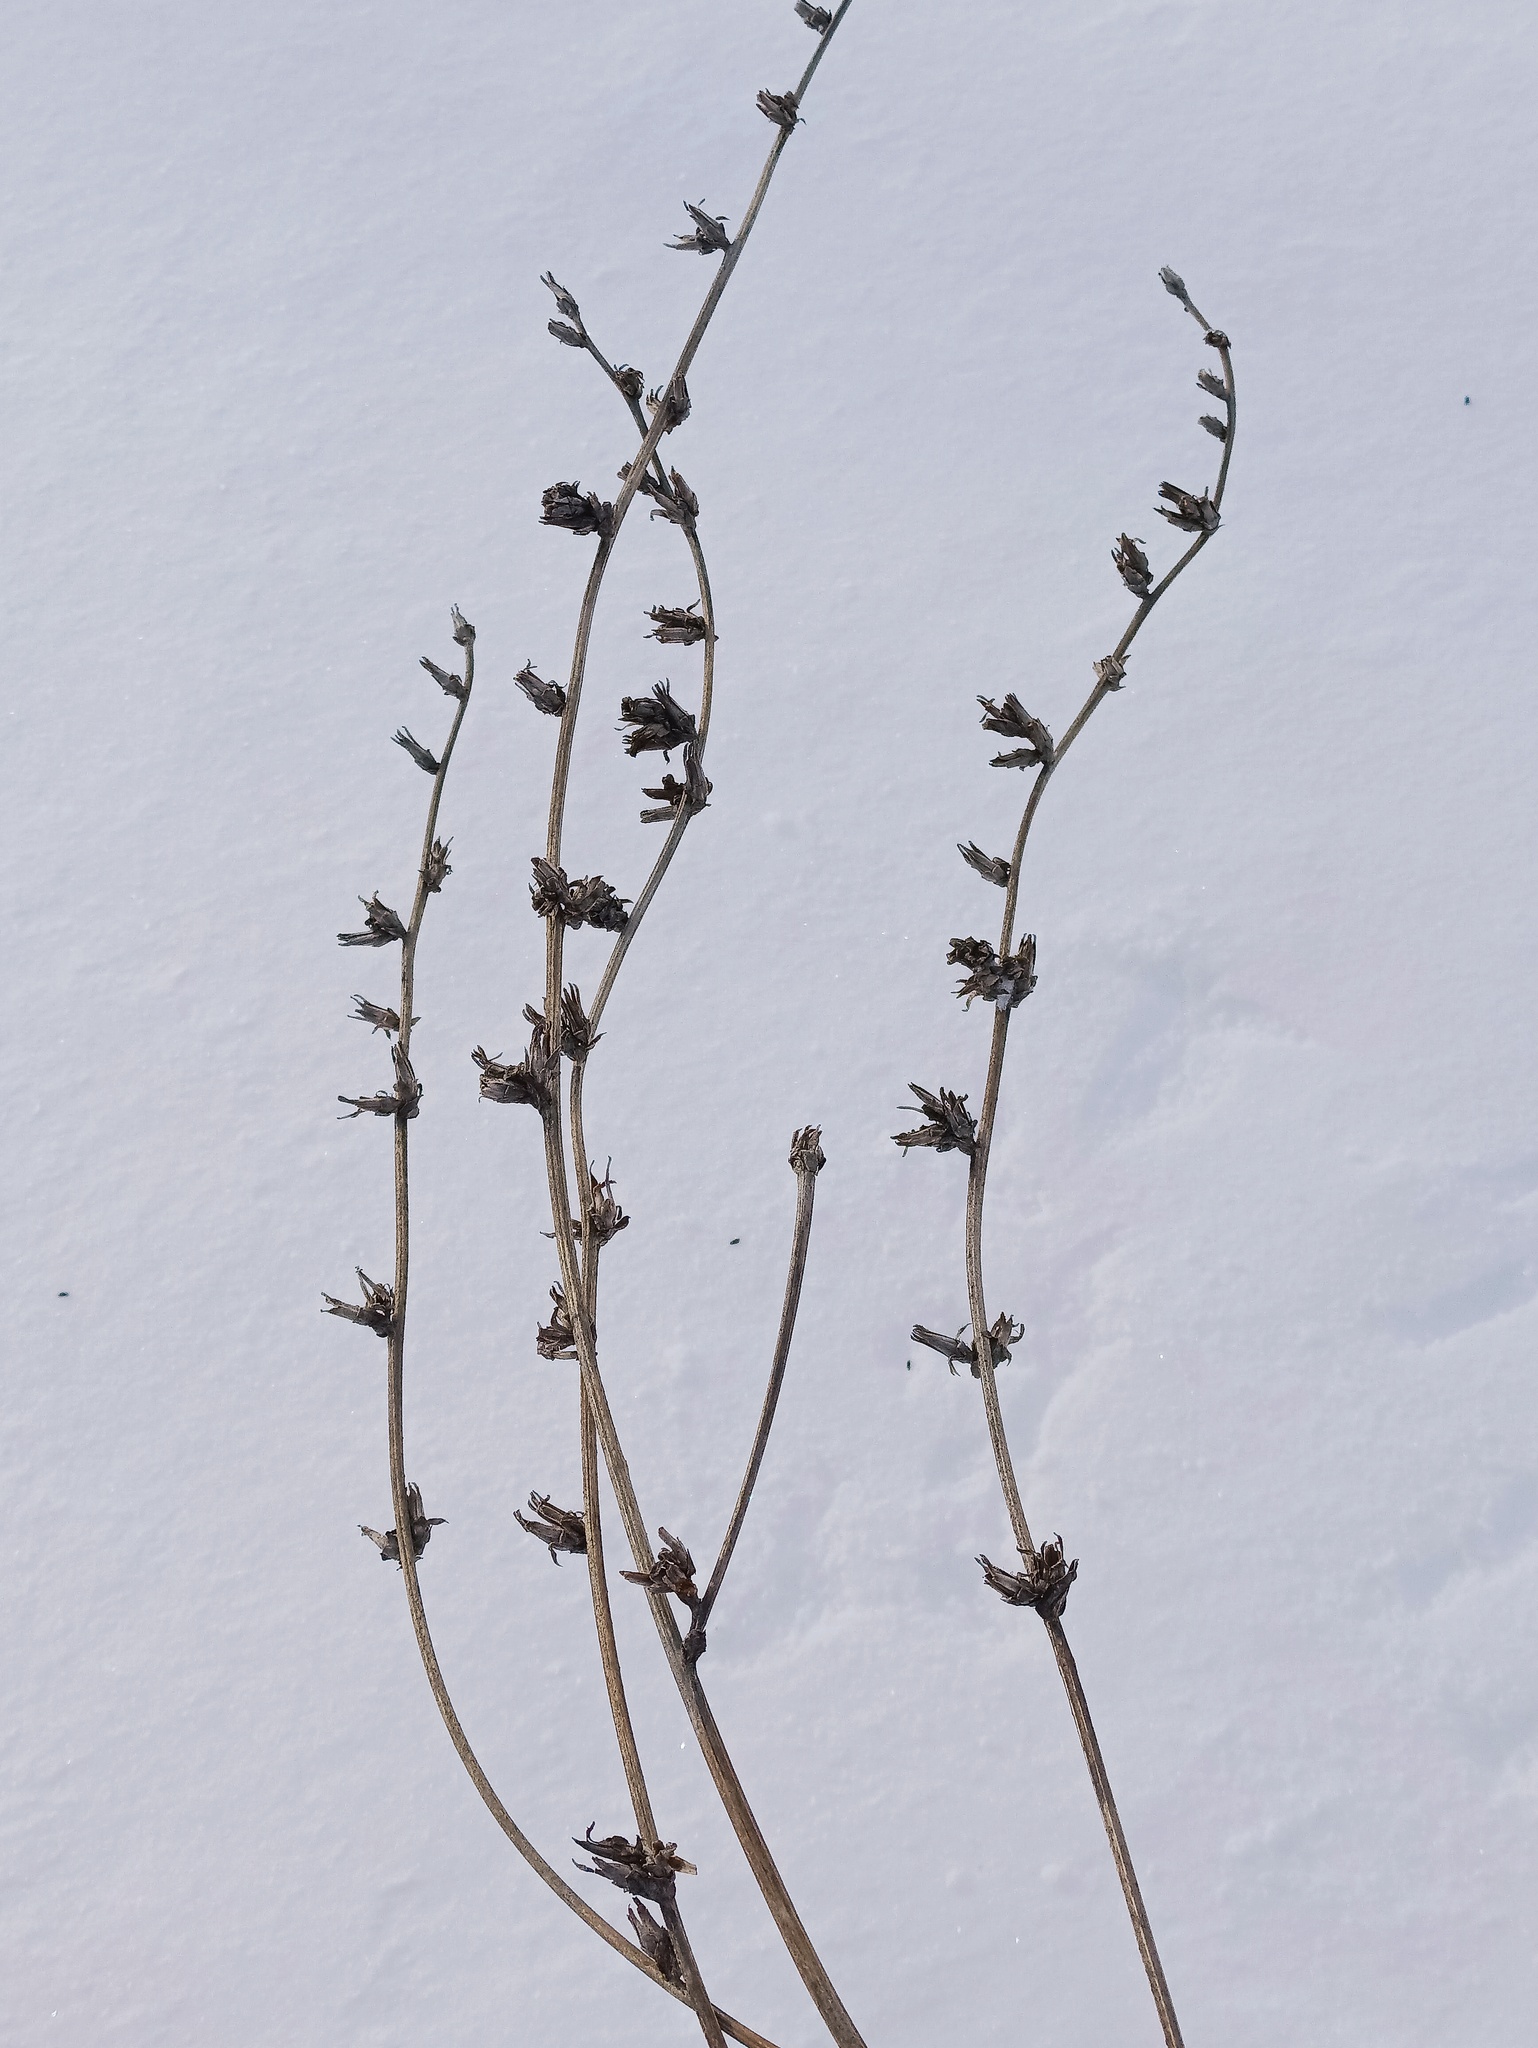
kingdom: Plantae
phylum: Tracheophyta
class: Magnoliopsida
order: Asterales
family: Asteraceae
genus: Cichorium
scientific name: Cichorium intybus
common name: Chicory
